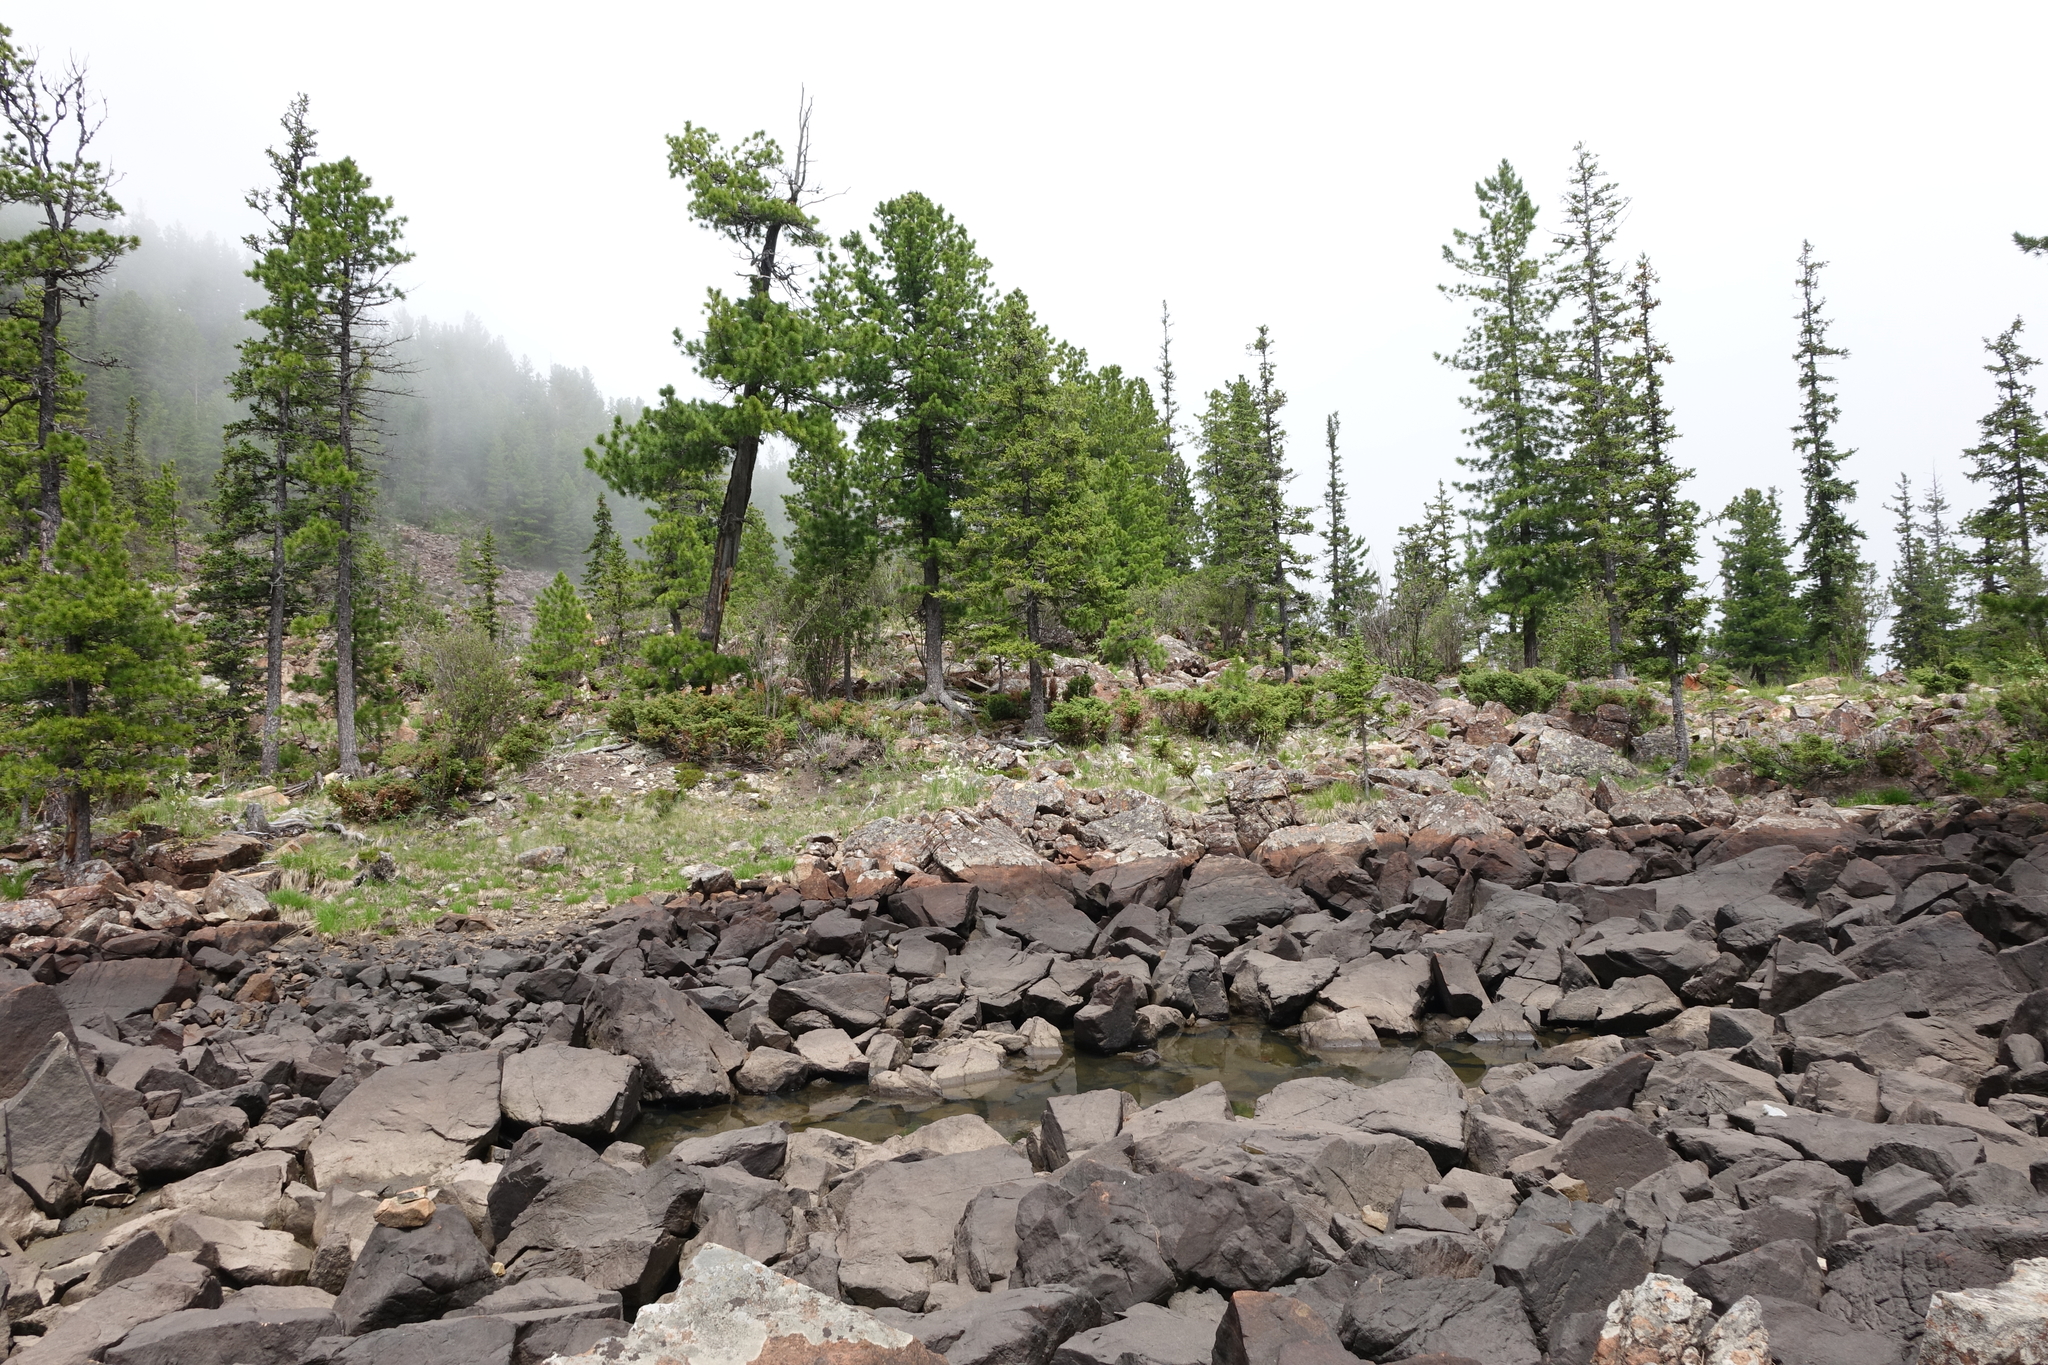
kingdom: Plantae
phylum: Tracheophyta
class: Pinopsida
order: Pinales
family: Pinaceae
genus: Pinus
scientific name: Pinus sibirica
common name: Siberian pine
